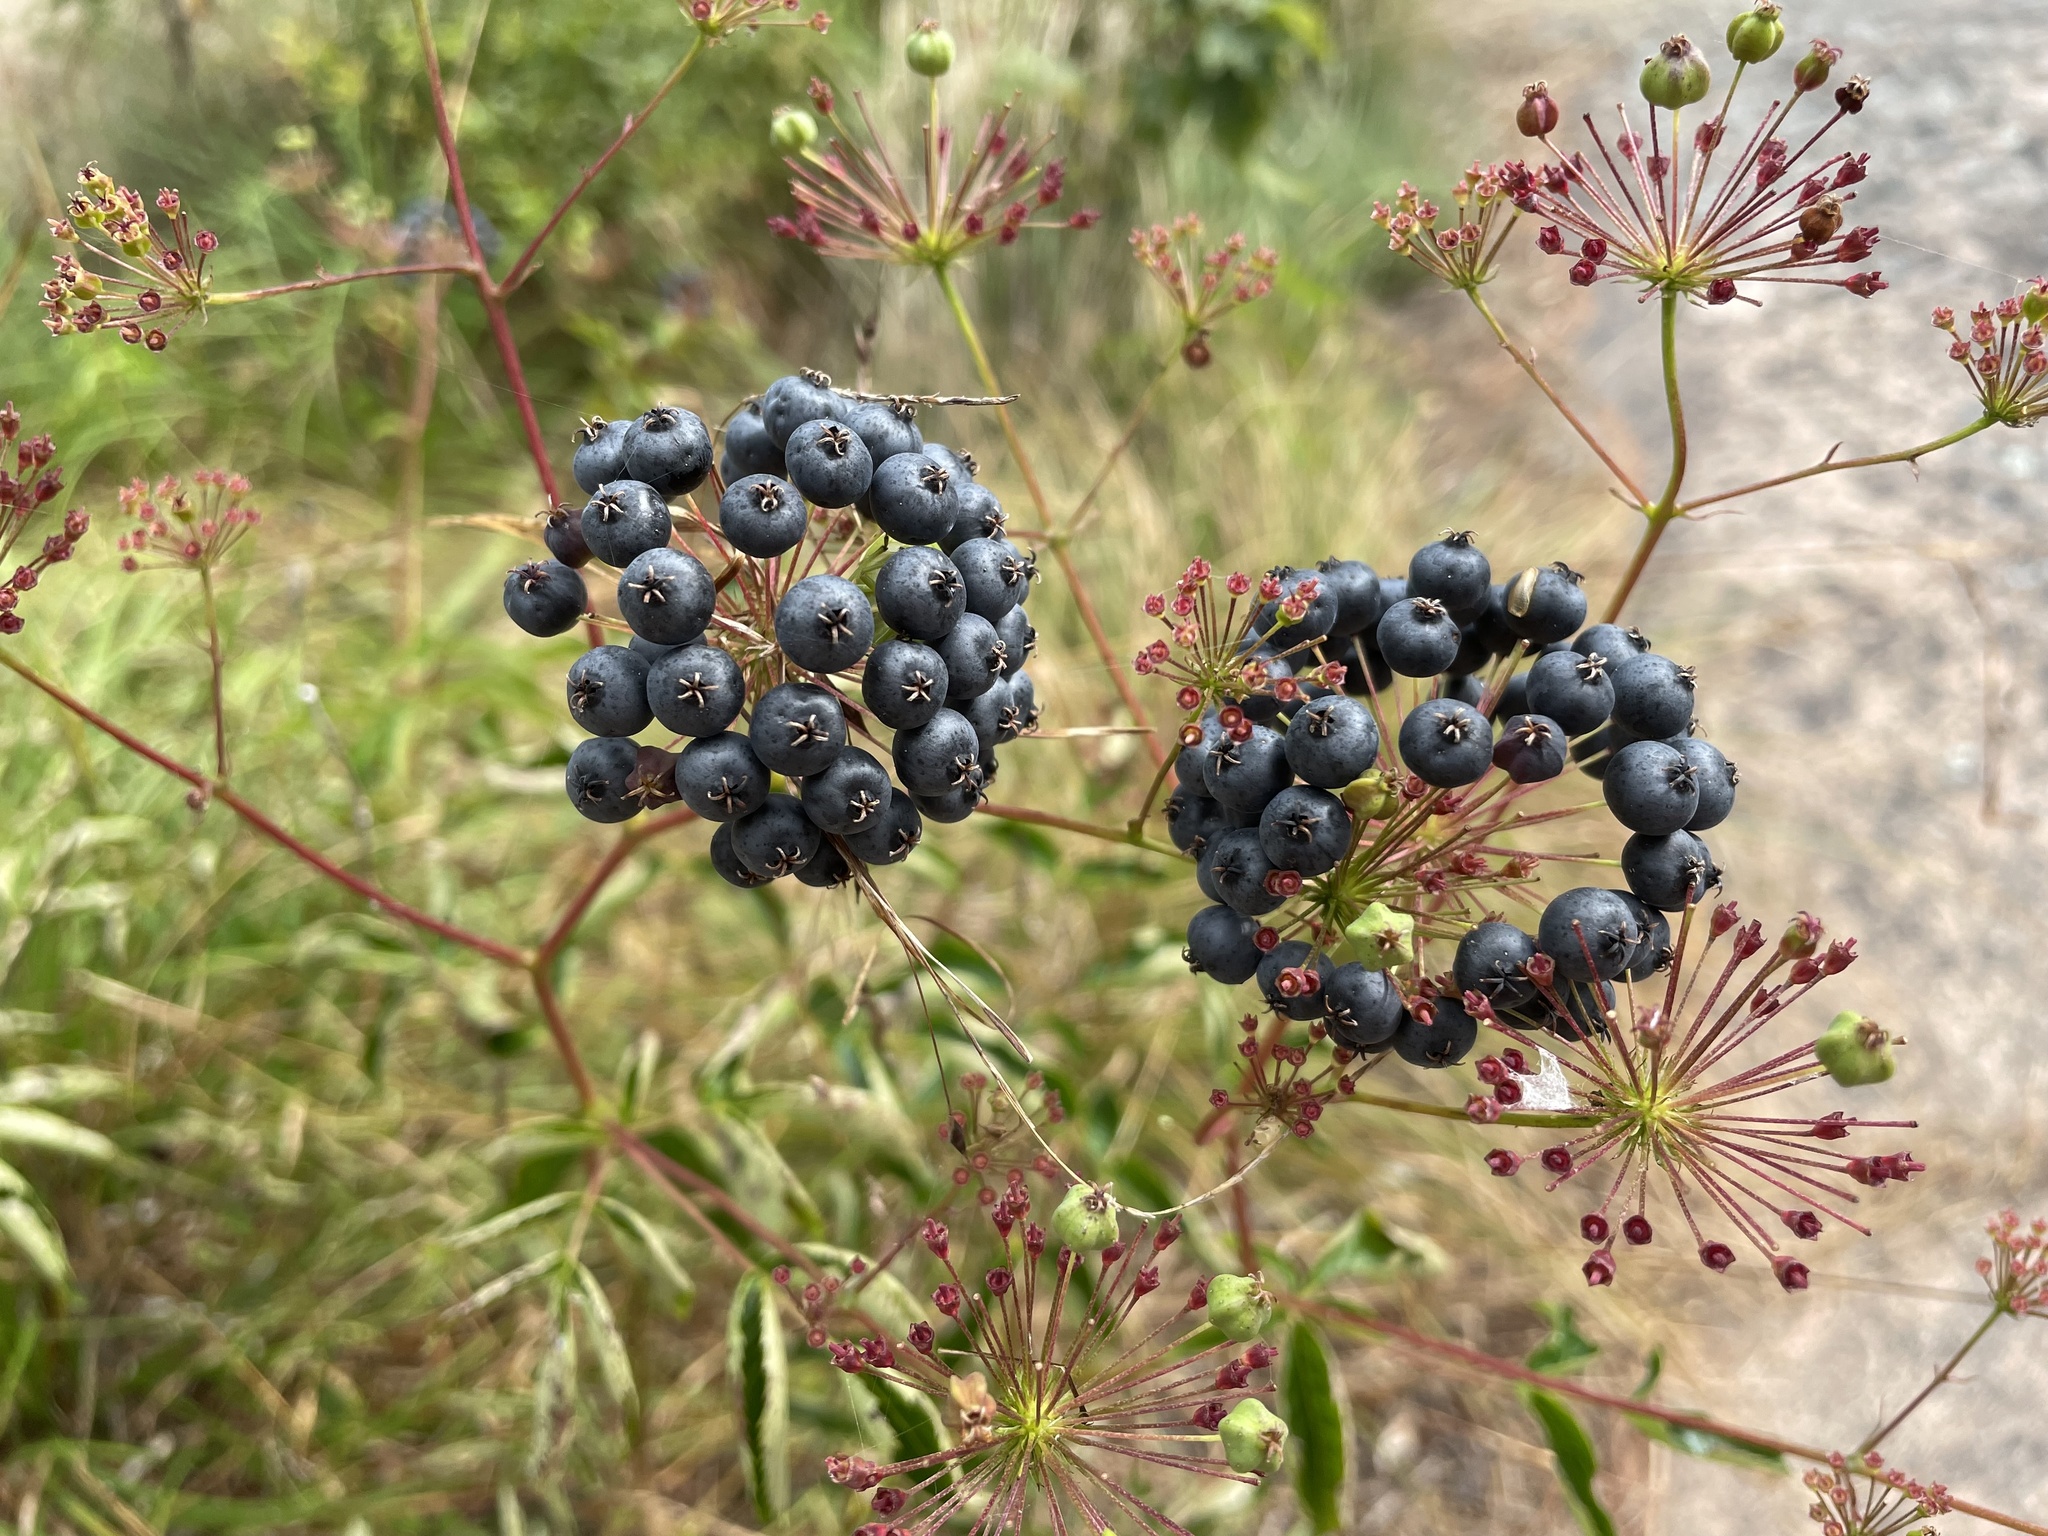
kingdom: Plantae
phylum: Tracheophyta
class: Magnoliopsida
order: Apiales
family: Araliaceae
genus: Aralia
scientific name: Aralia hispida
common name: Bristly sarsaparilla
